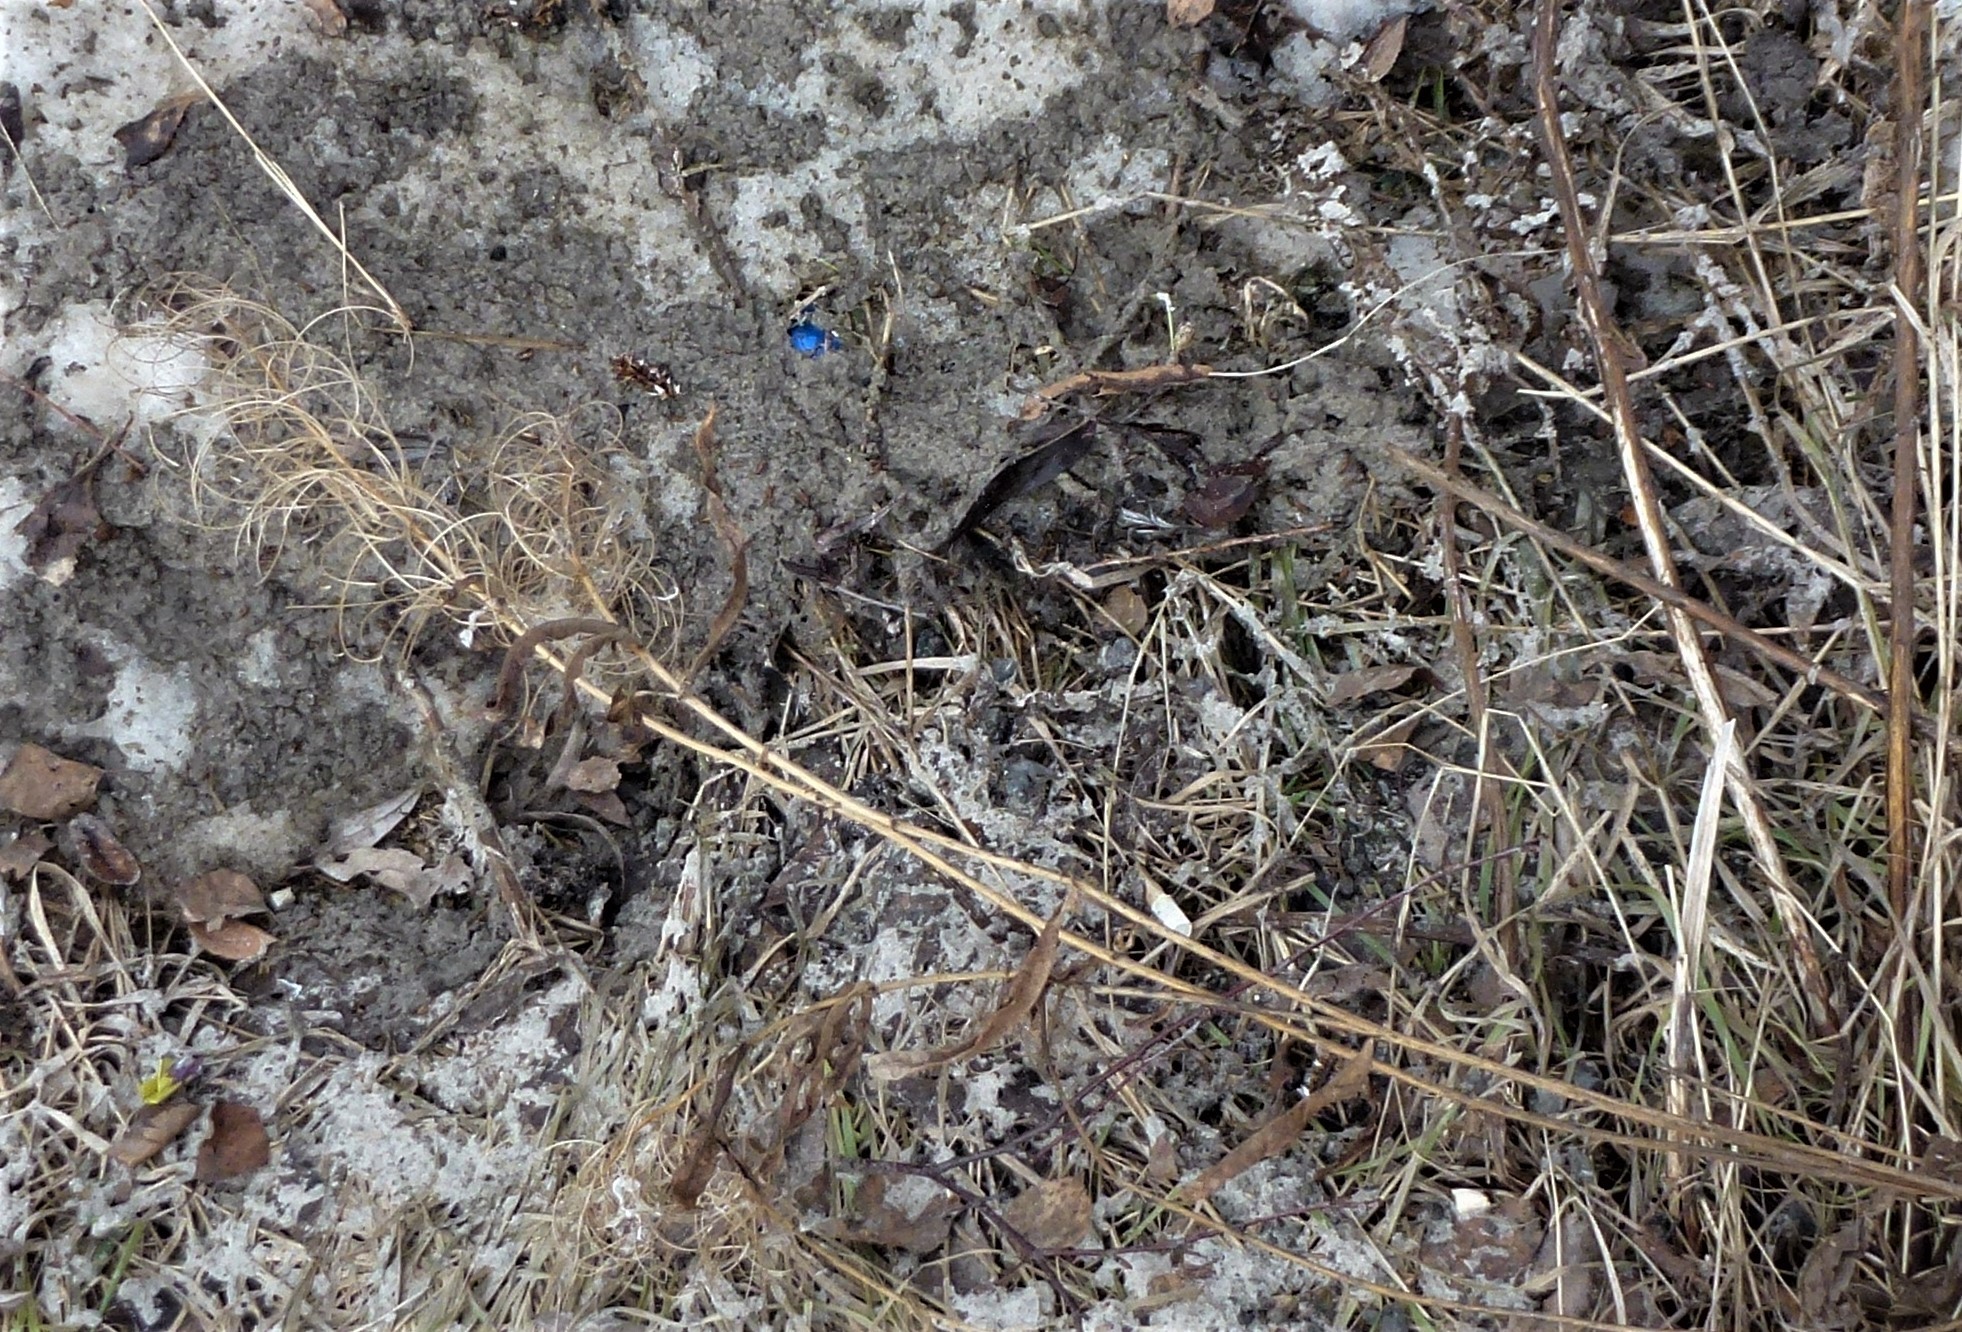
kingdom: Plantae
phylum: Tracheophyta
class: Magnoliopsida
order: Myrtales
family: Onagraceae
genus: Chamaenerion
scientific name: Chamaenerion angustifolium
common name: Fireweed
